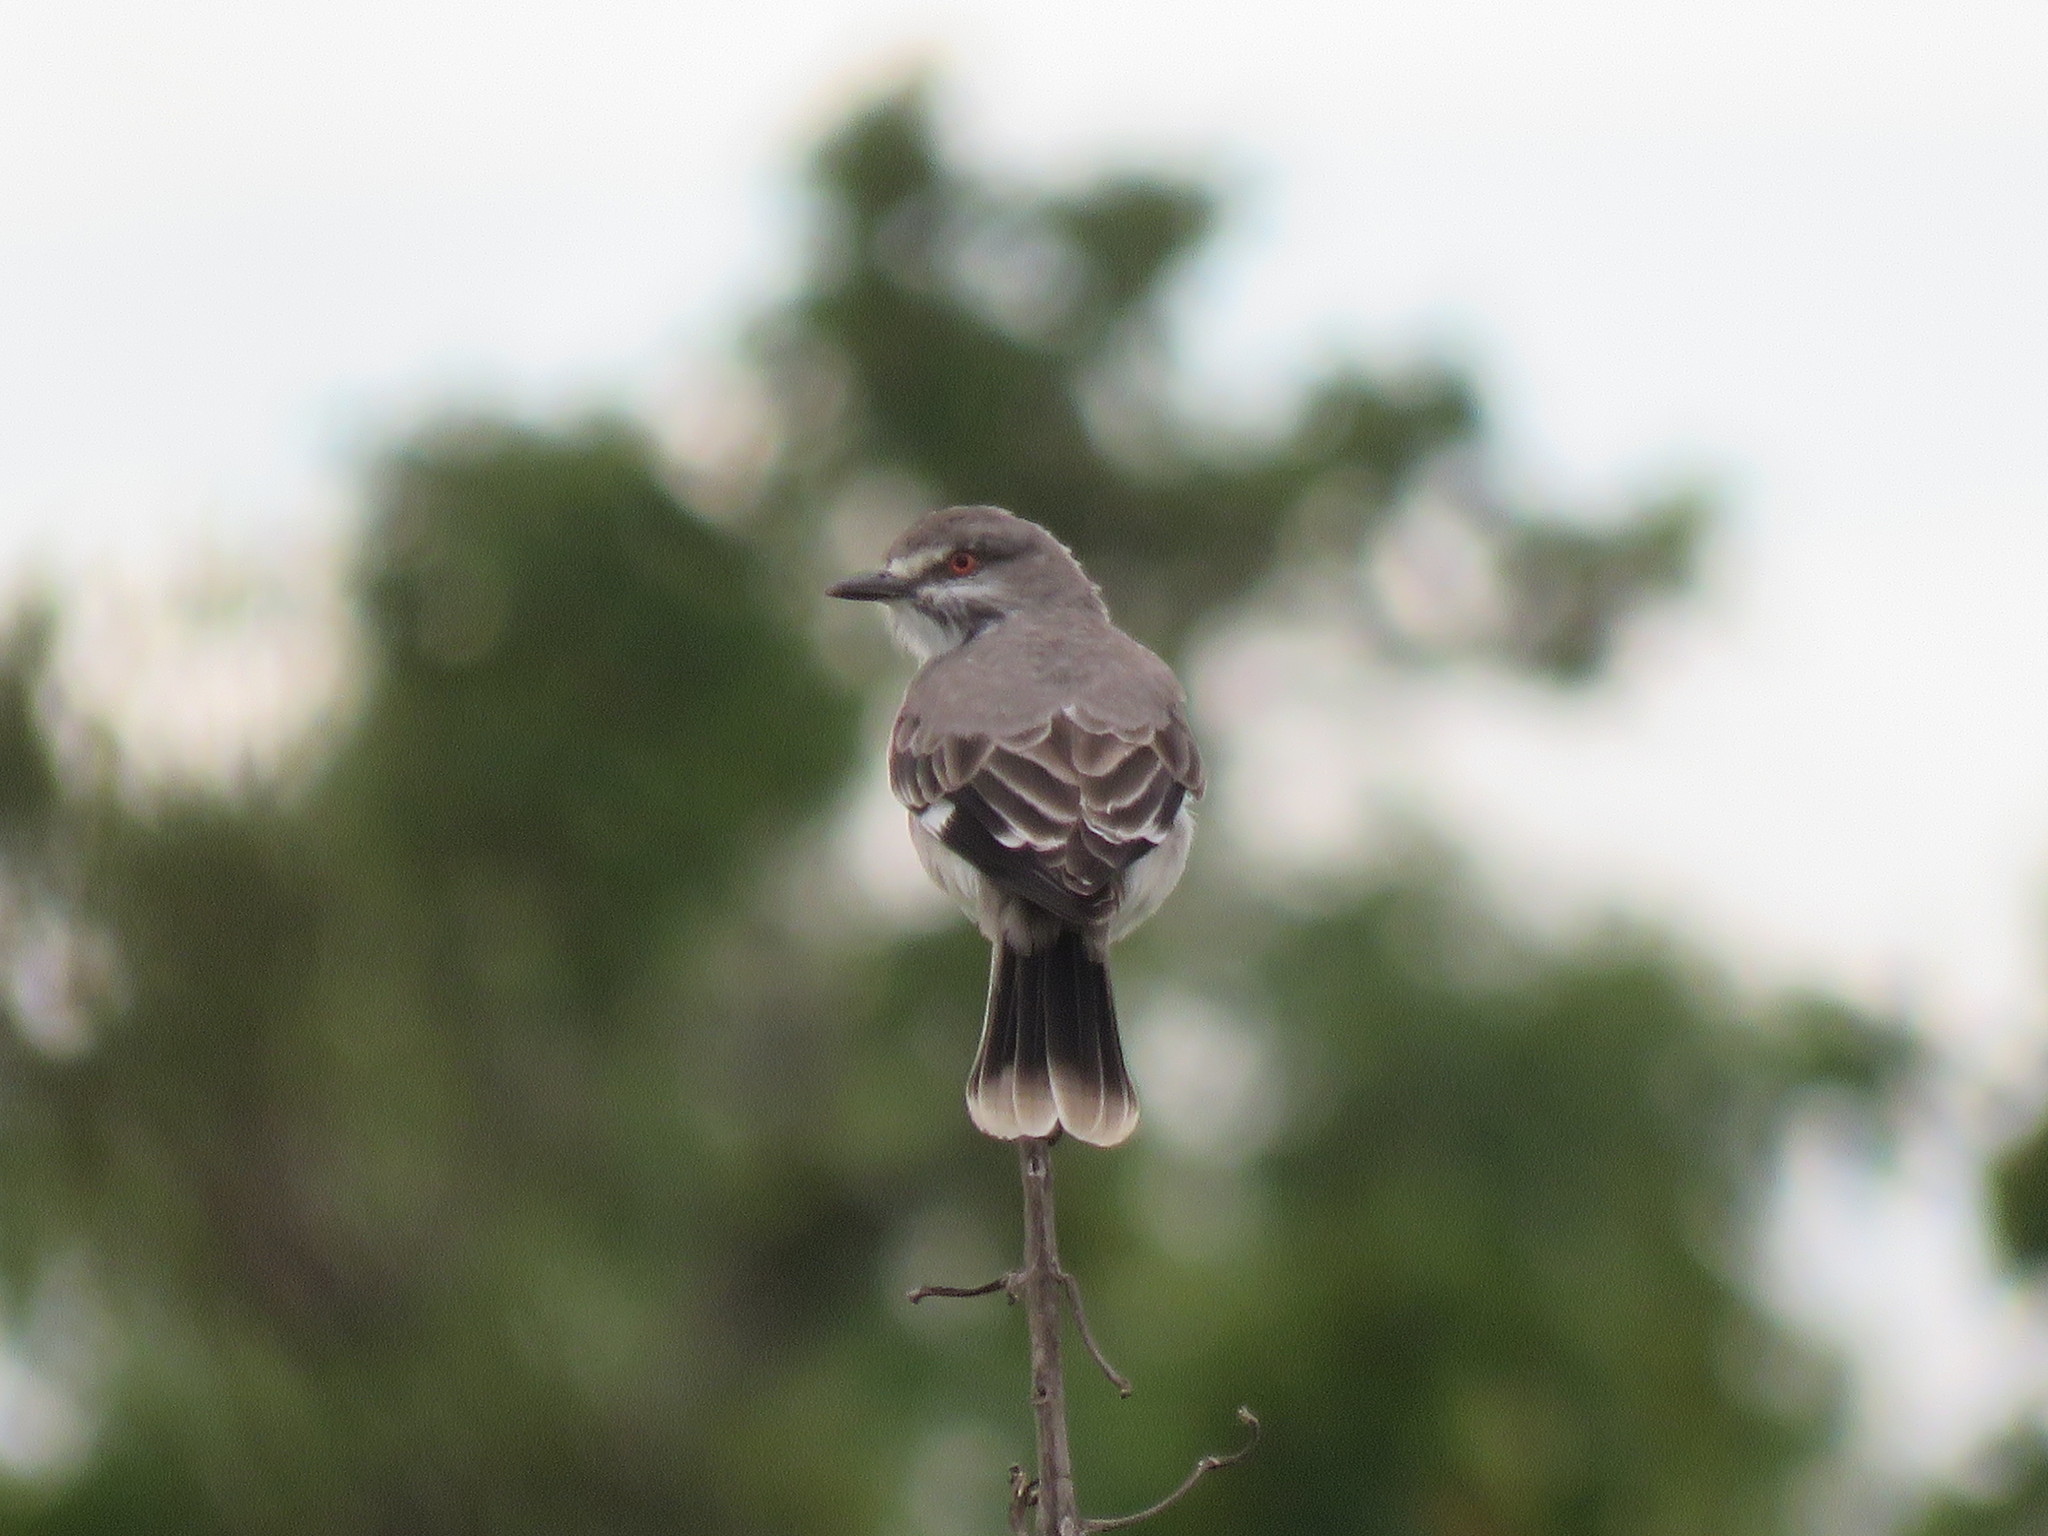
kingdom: Animalia
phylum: Chordata
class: Aves
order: Passeriformes
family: Tyrannidae
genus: Xolmis
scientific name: Xolmis cinereus
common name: Grey monjita
